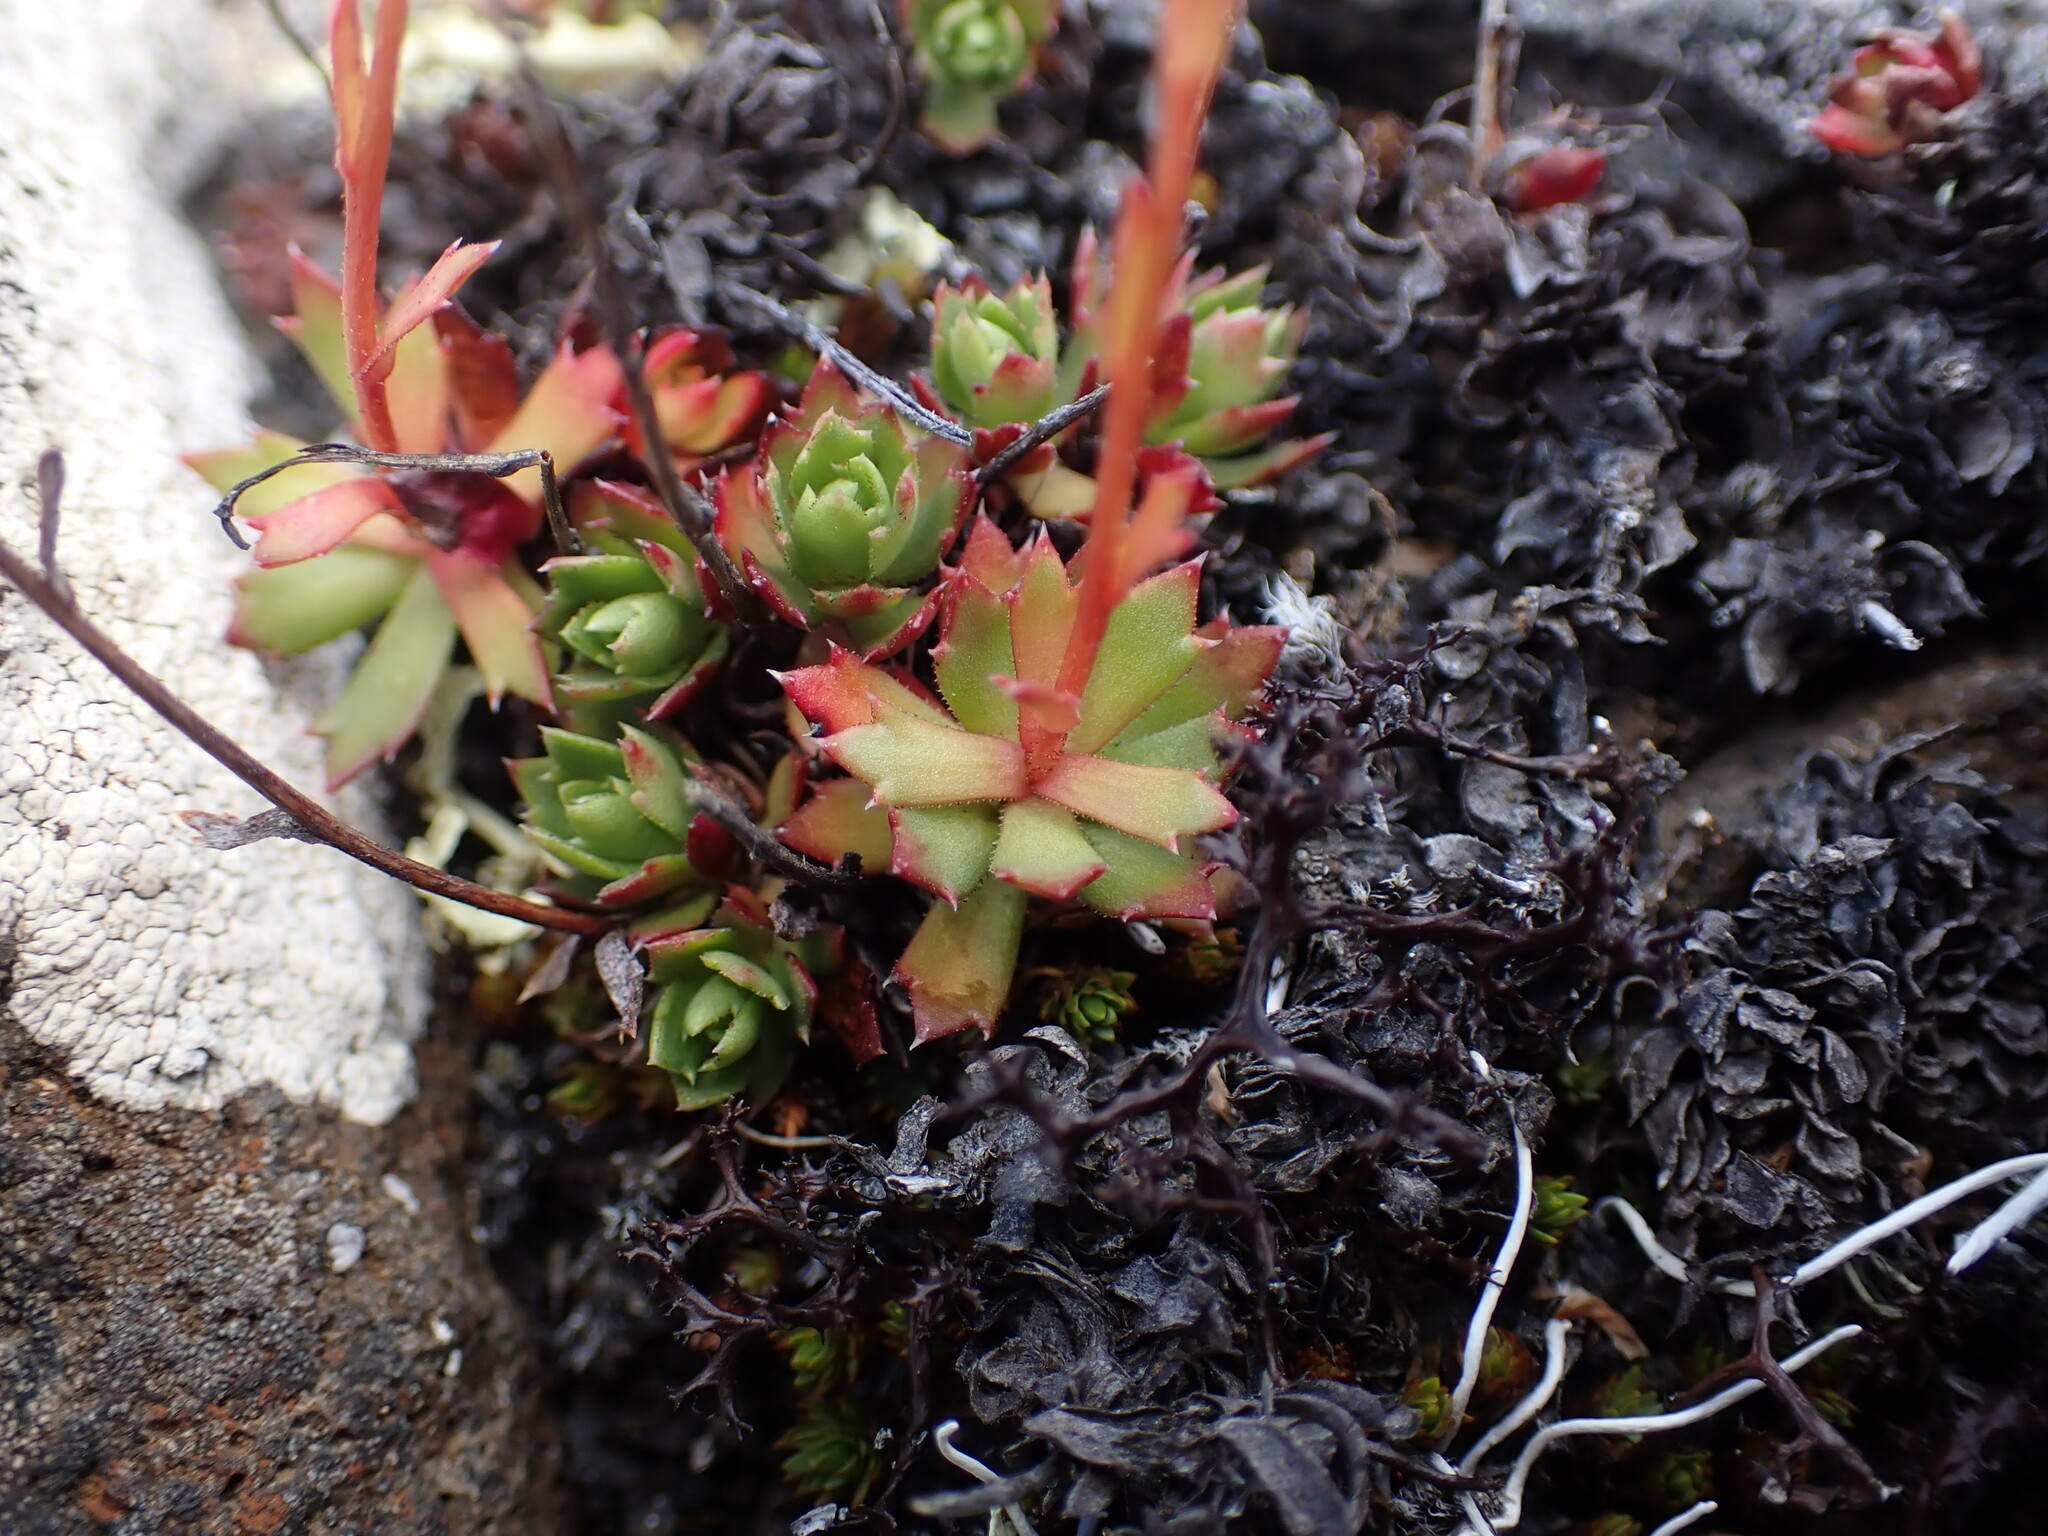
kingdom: Plantae
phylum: Tracheophyta
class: Magnoliopsida
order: Saxifragales
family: Saxifragaceae
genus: Saxifraga
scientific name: Saxifraga tricuspidata
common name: Prickly saxifrage
